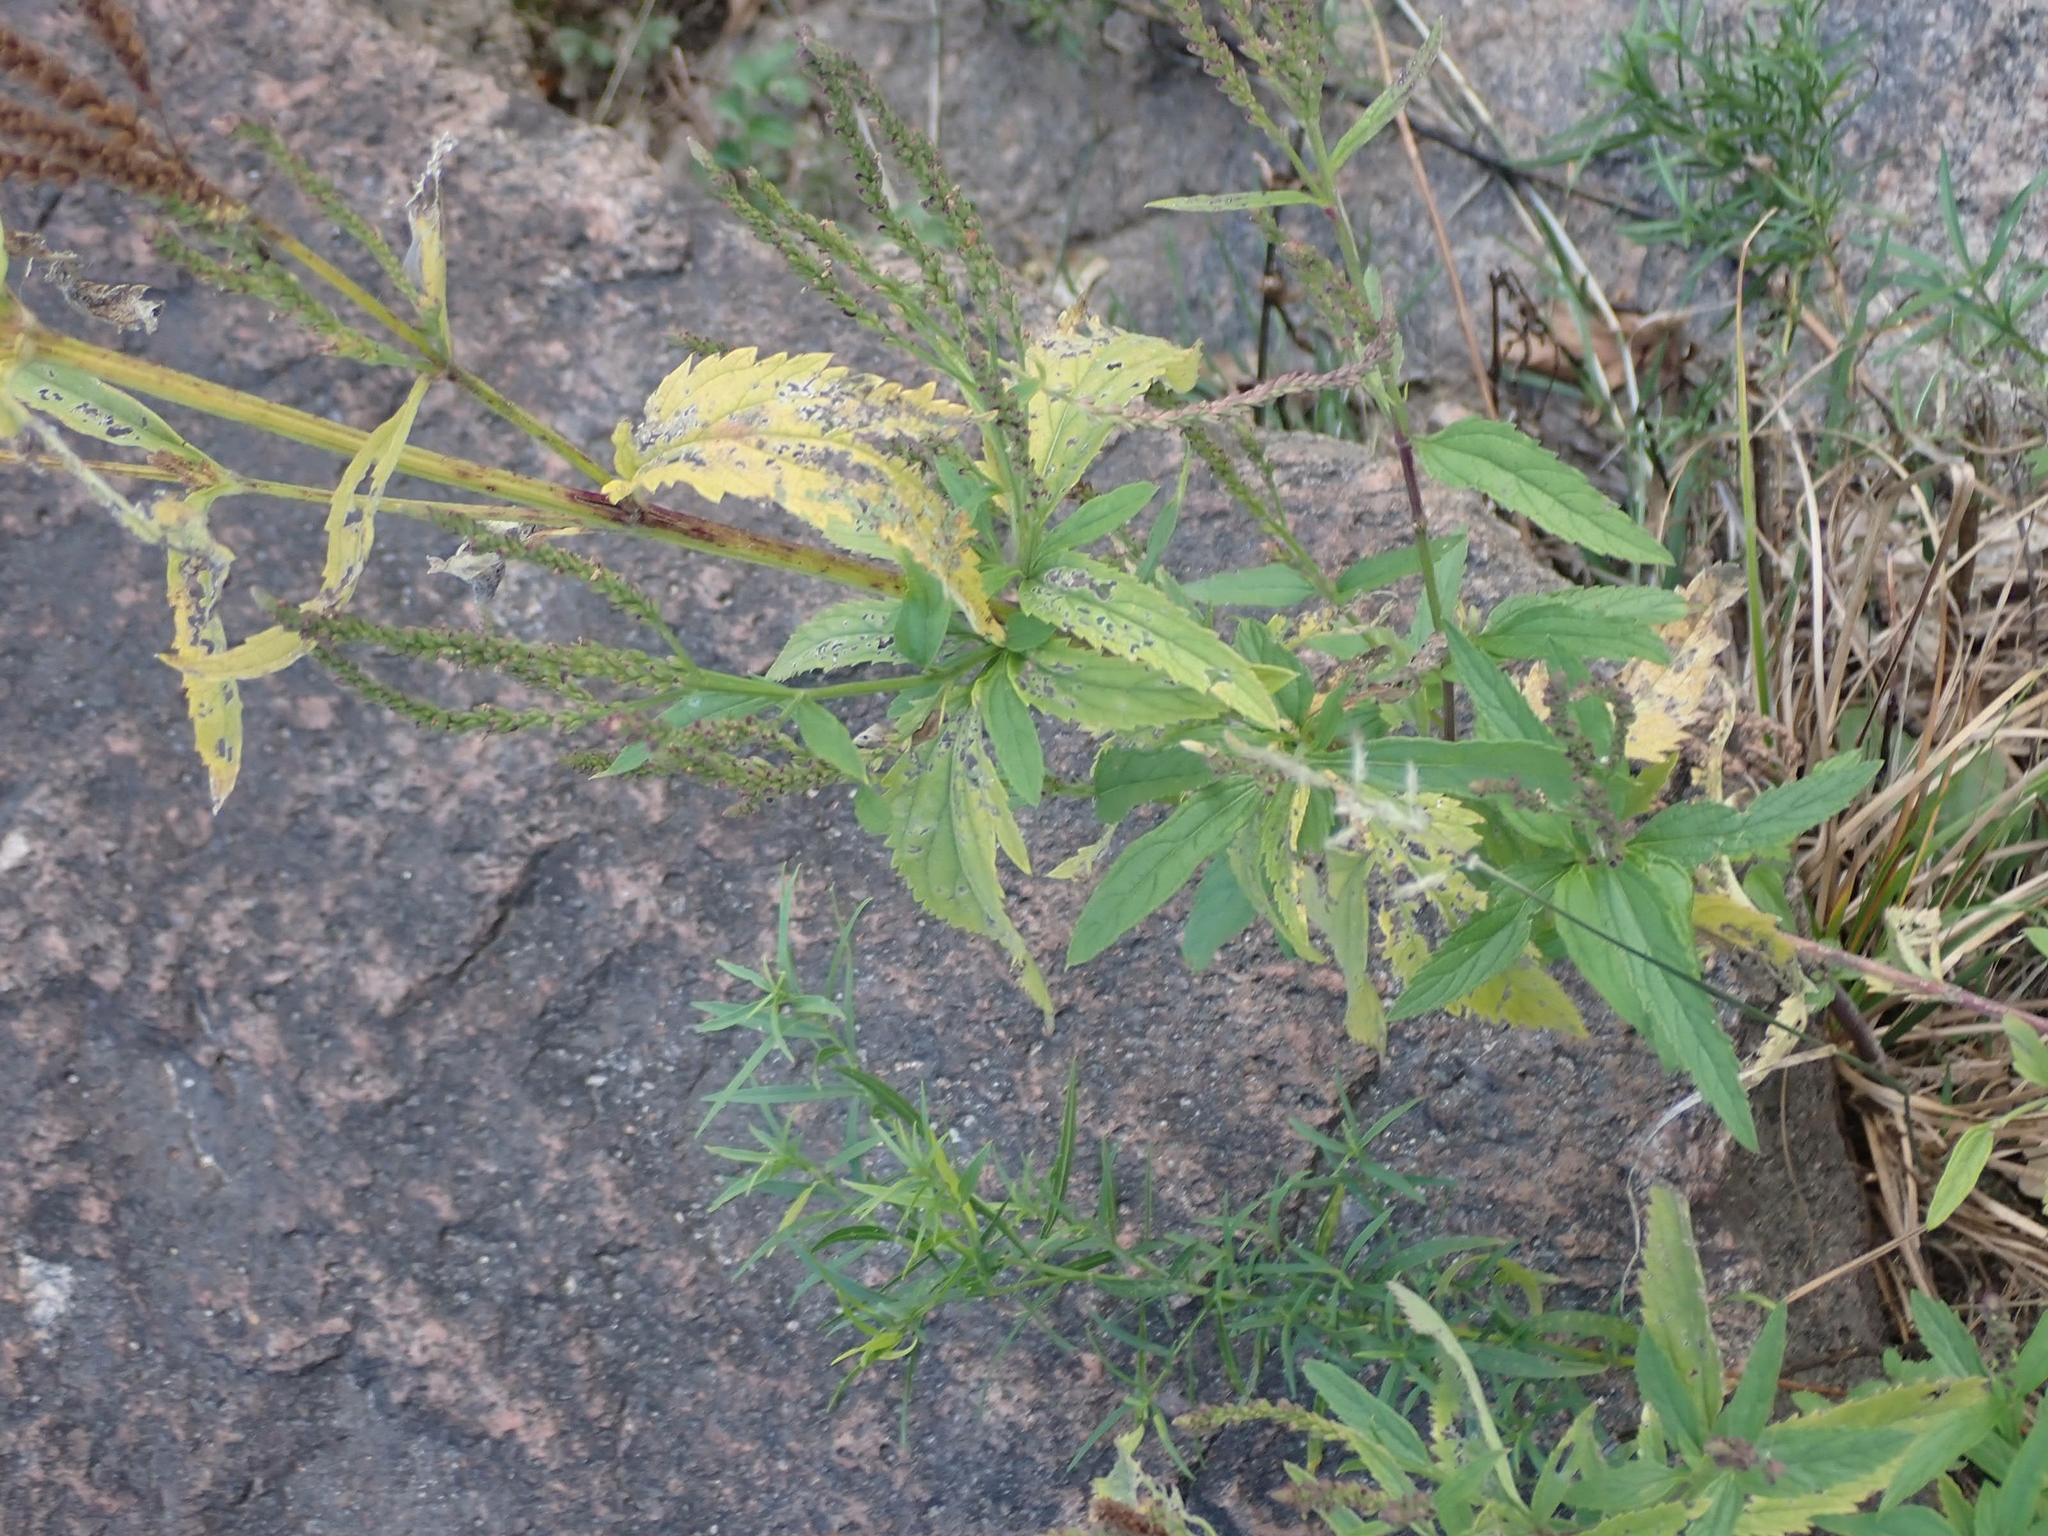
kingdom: Plantae
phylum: Tracheophyta
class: Magnoliopsida
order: Lamiales
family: Verbenaceae
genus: Verbena
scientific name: Verbena hastata
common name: American blue vervain
